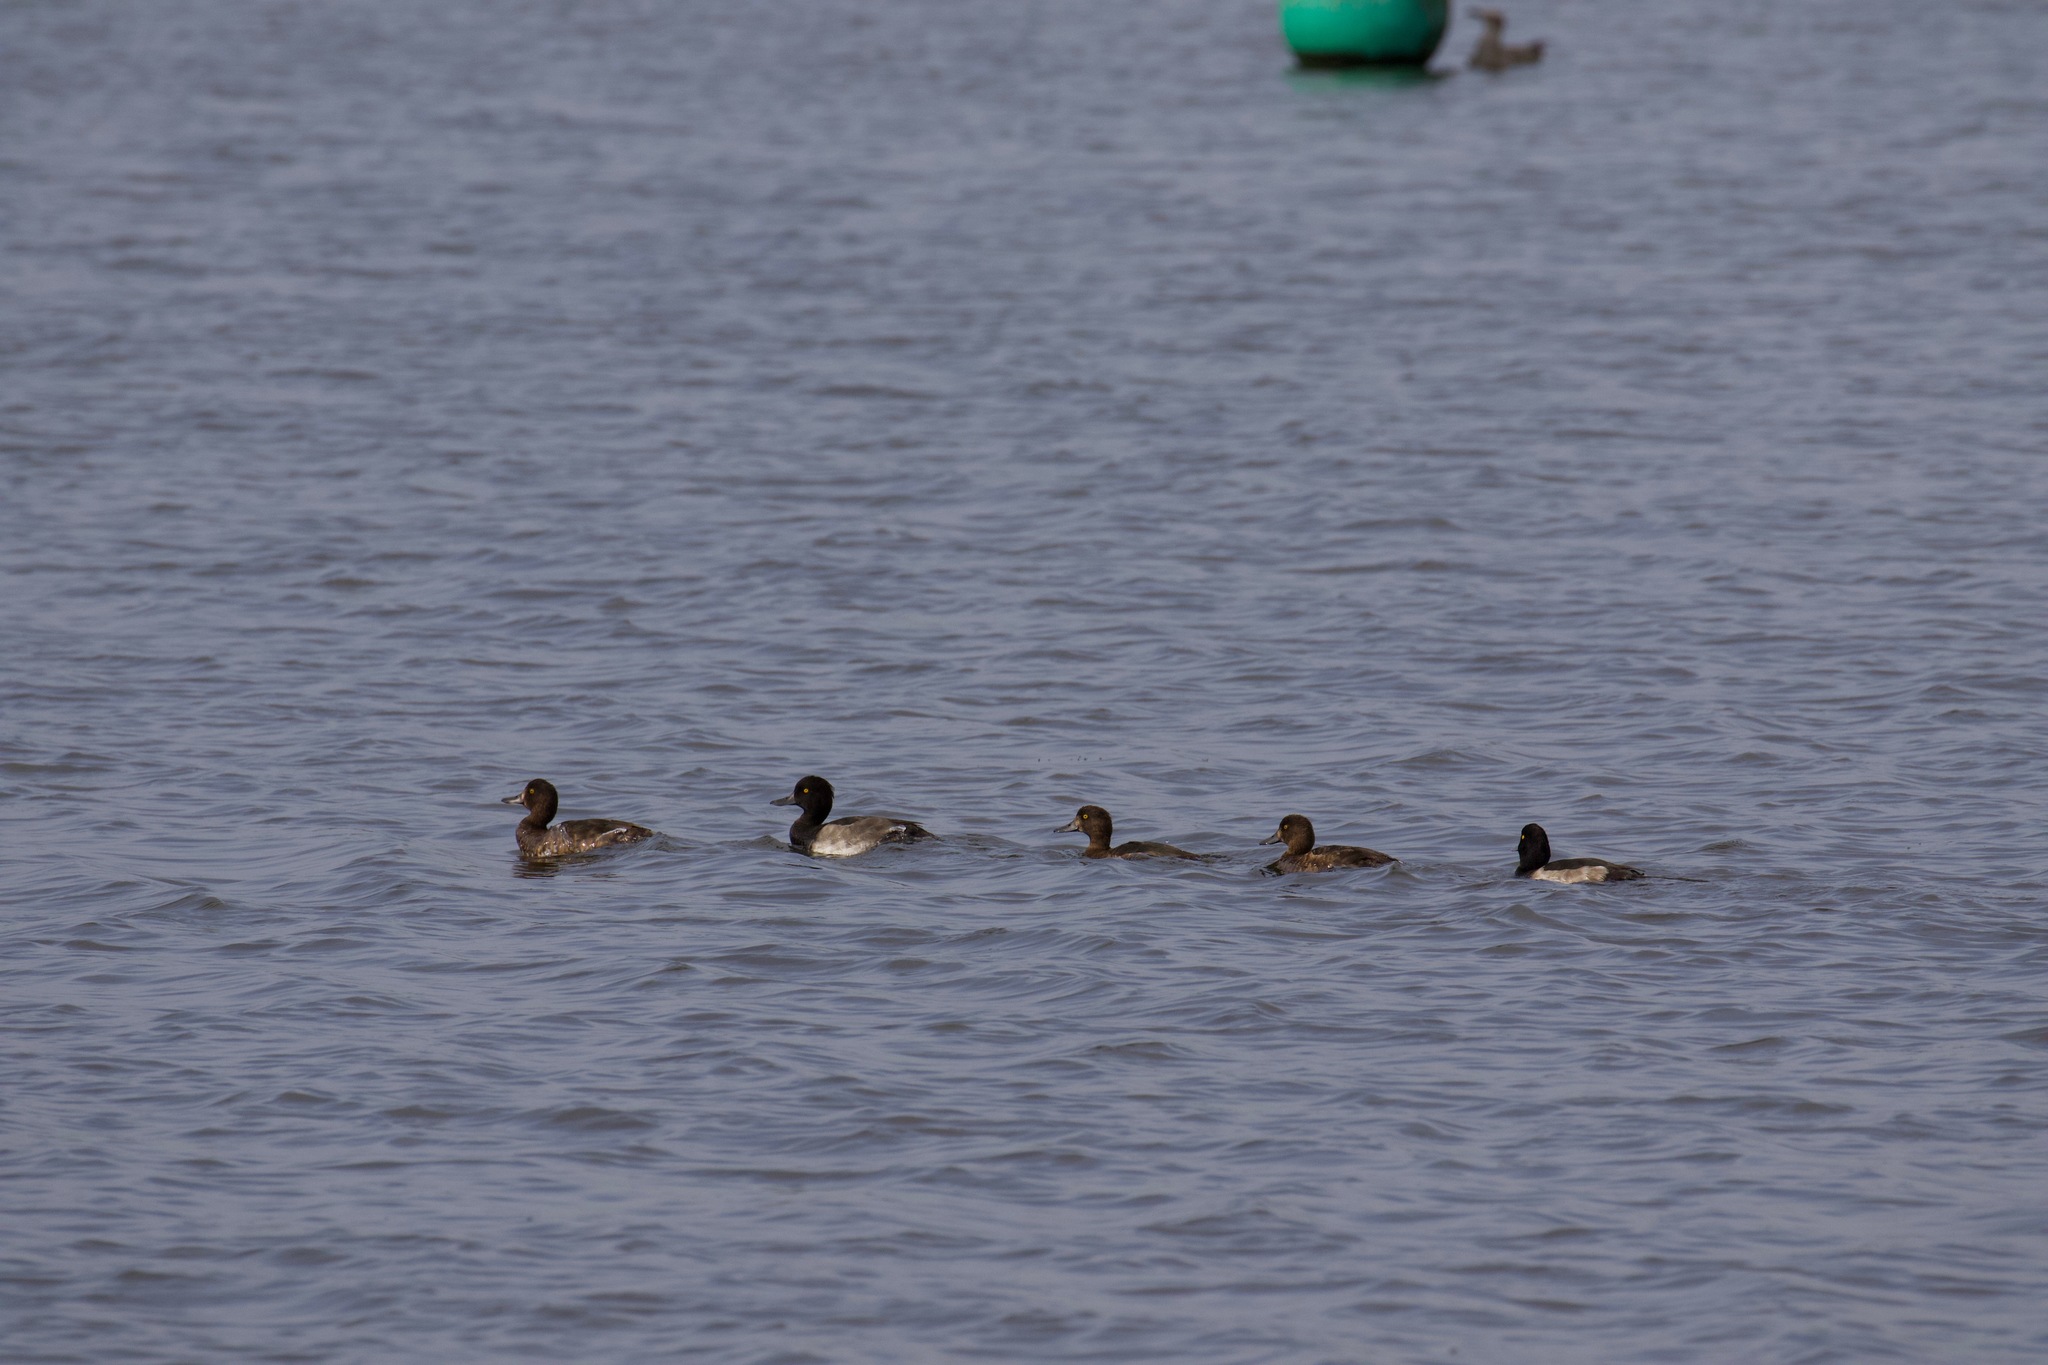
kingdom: Animalia
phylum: Chordata
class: Aves
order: Anseriformes
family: Anatidae
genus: Aythya
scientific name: Aythya fuligula
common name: Tufted duck
